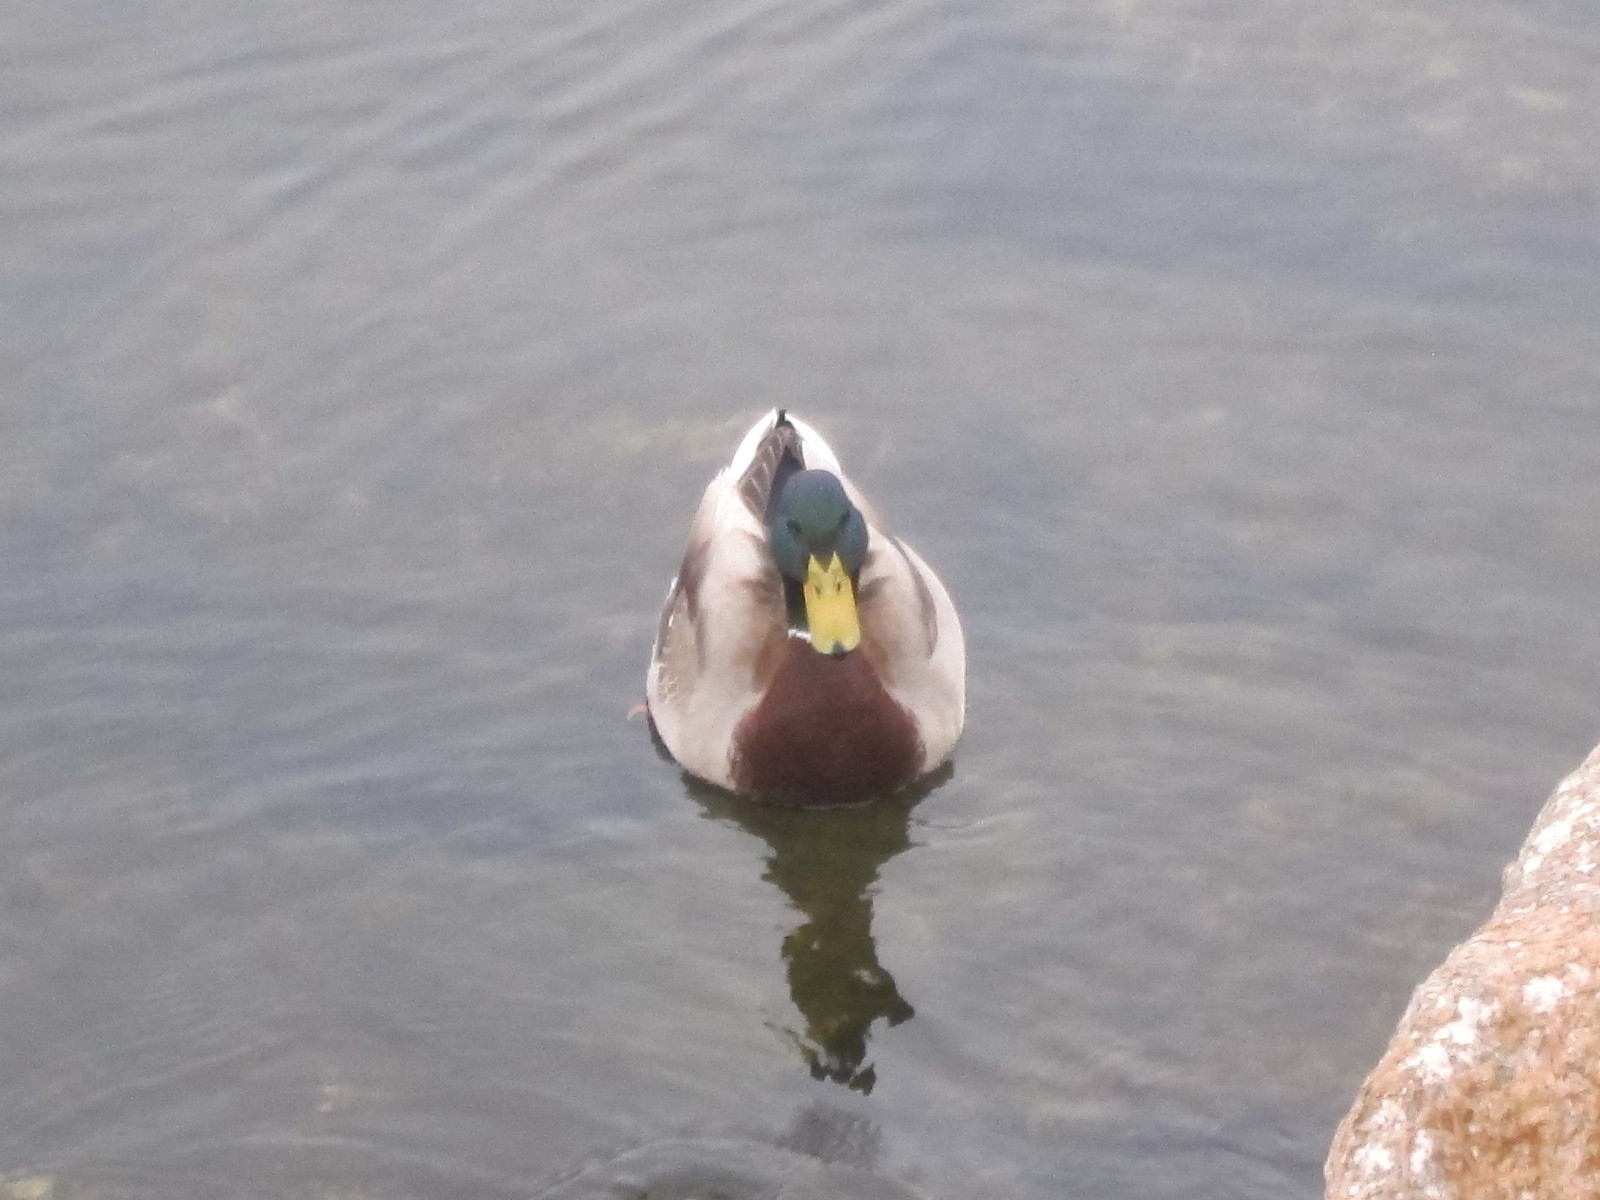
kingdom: Animalia
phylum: Chordata
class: Aves
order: Anseriformes
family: Anatidae
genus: Anas
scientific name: Anas platyrhynchos
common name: Mallard
